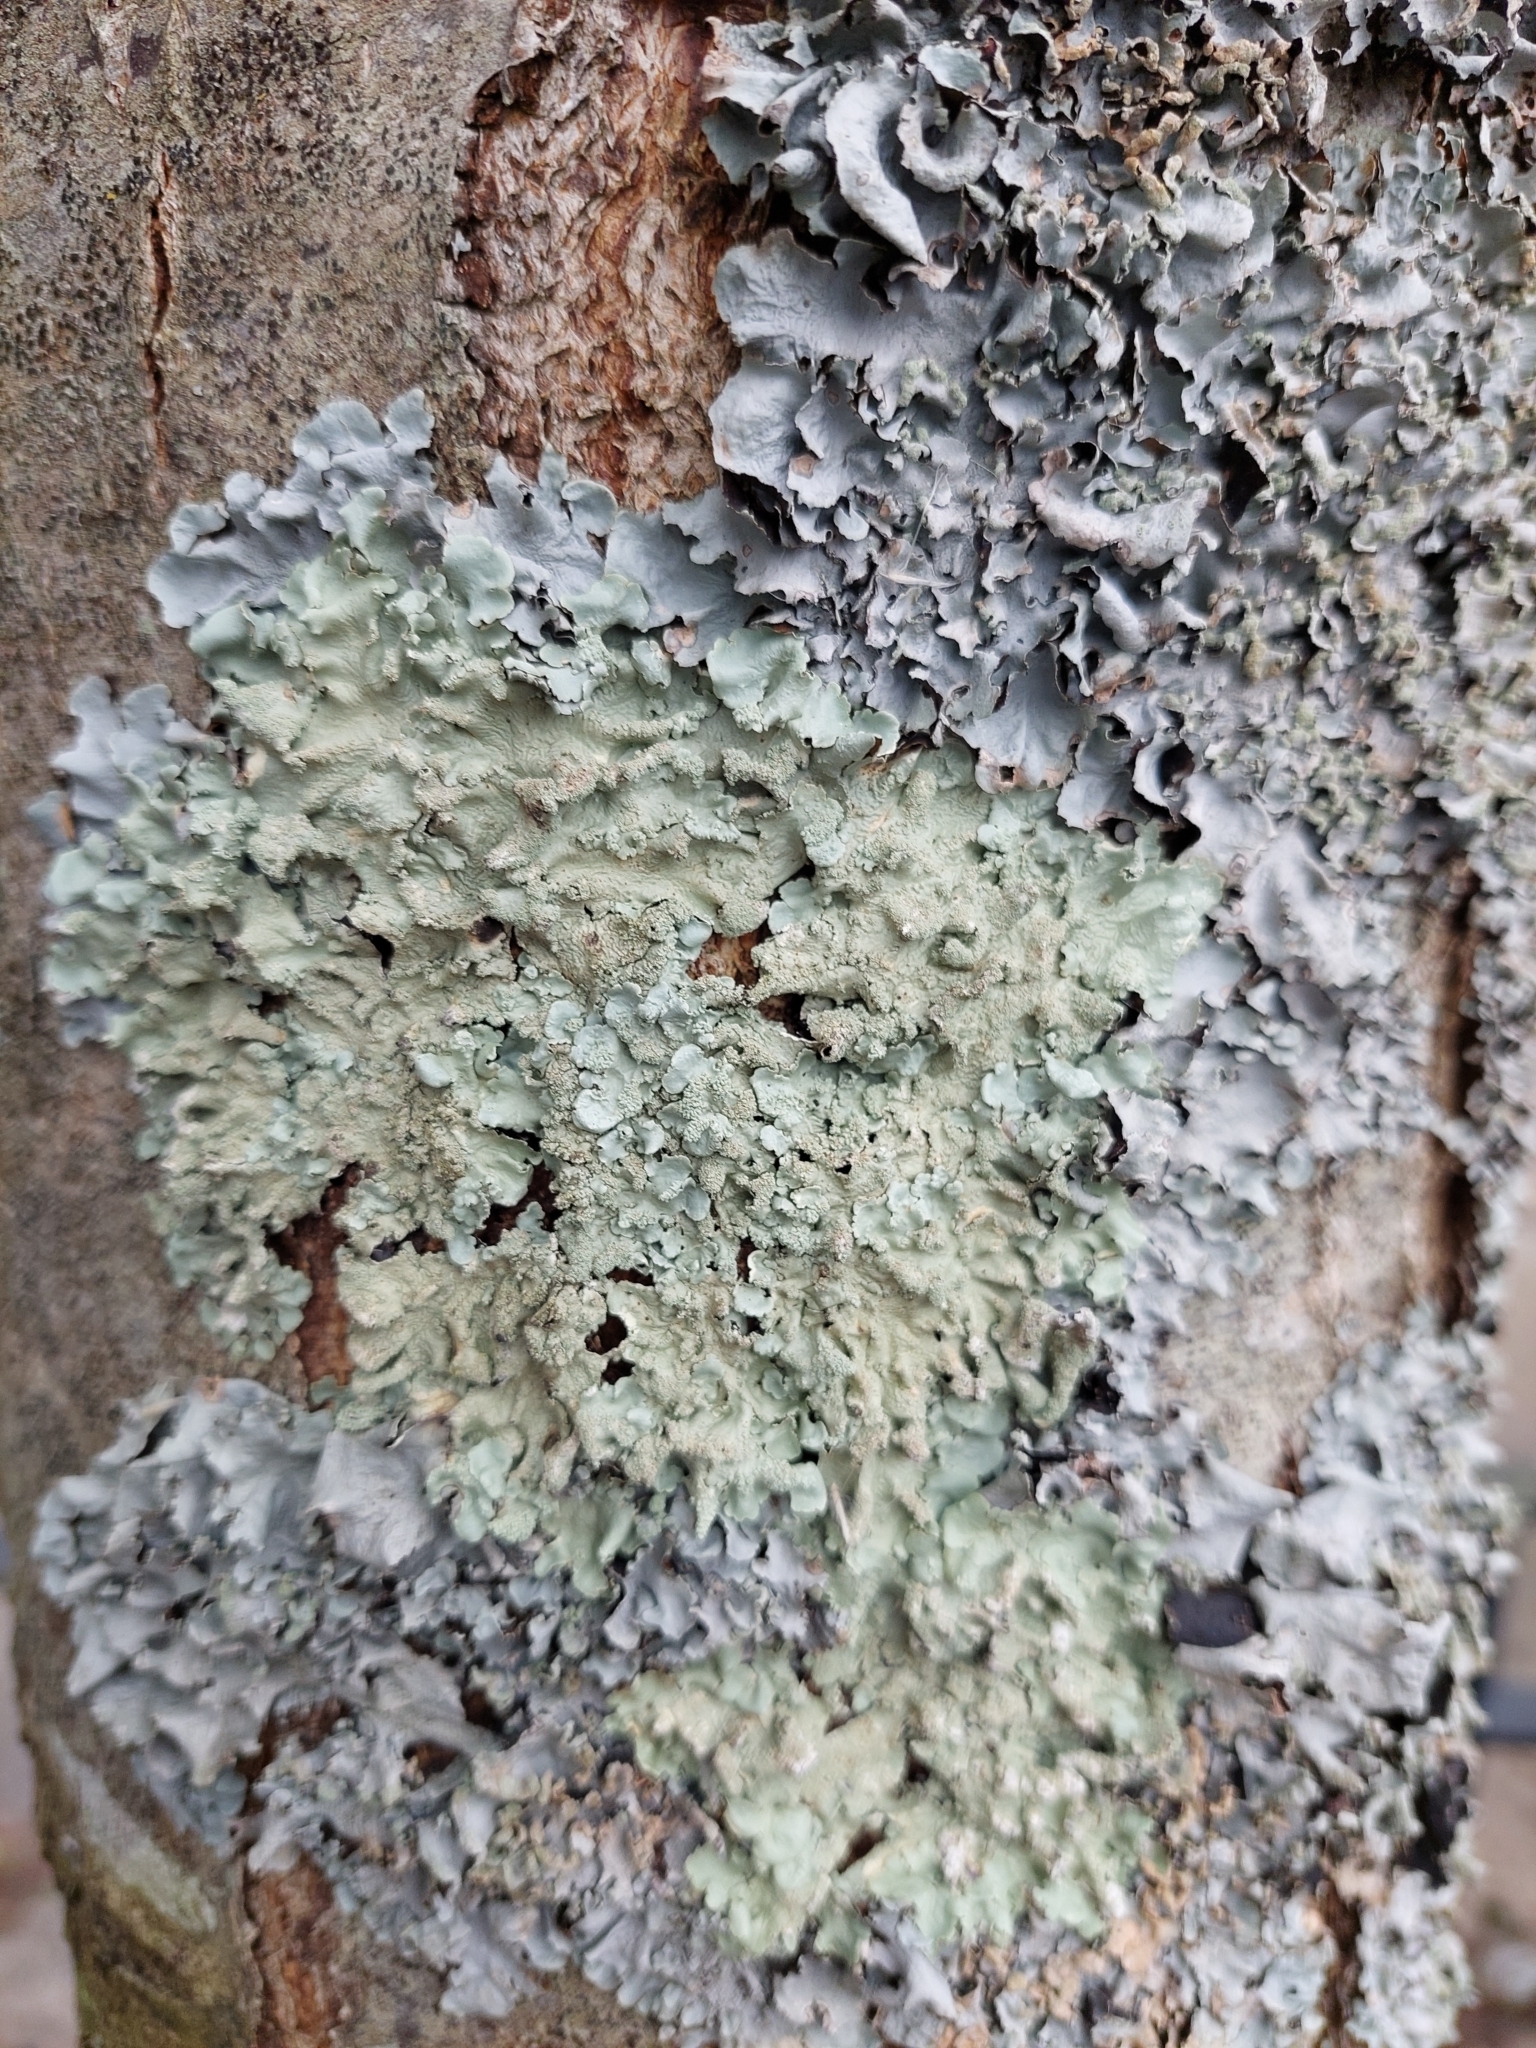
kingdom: Fungi
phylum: Ascomycota
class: Lecanoromycetes
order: Lecanorales
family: Parmeliaceae
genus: Flavoparmelia
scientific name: Flavoparmelia caperata
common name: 40-mile per hour lichen
